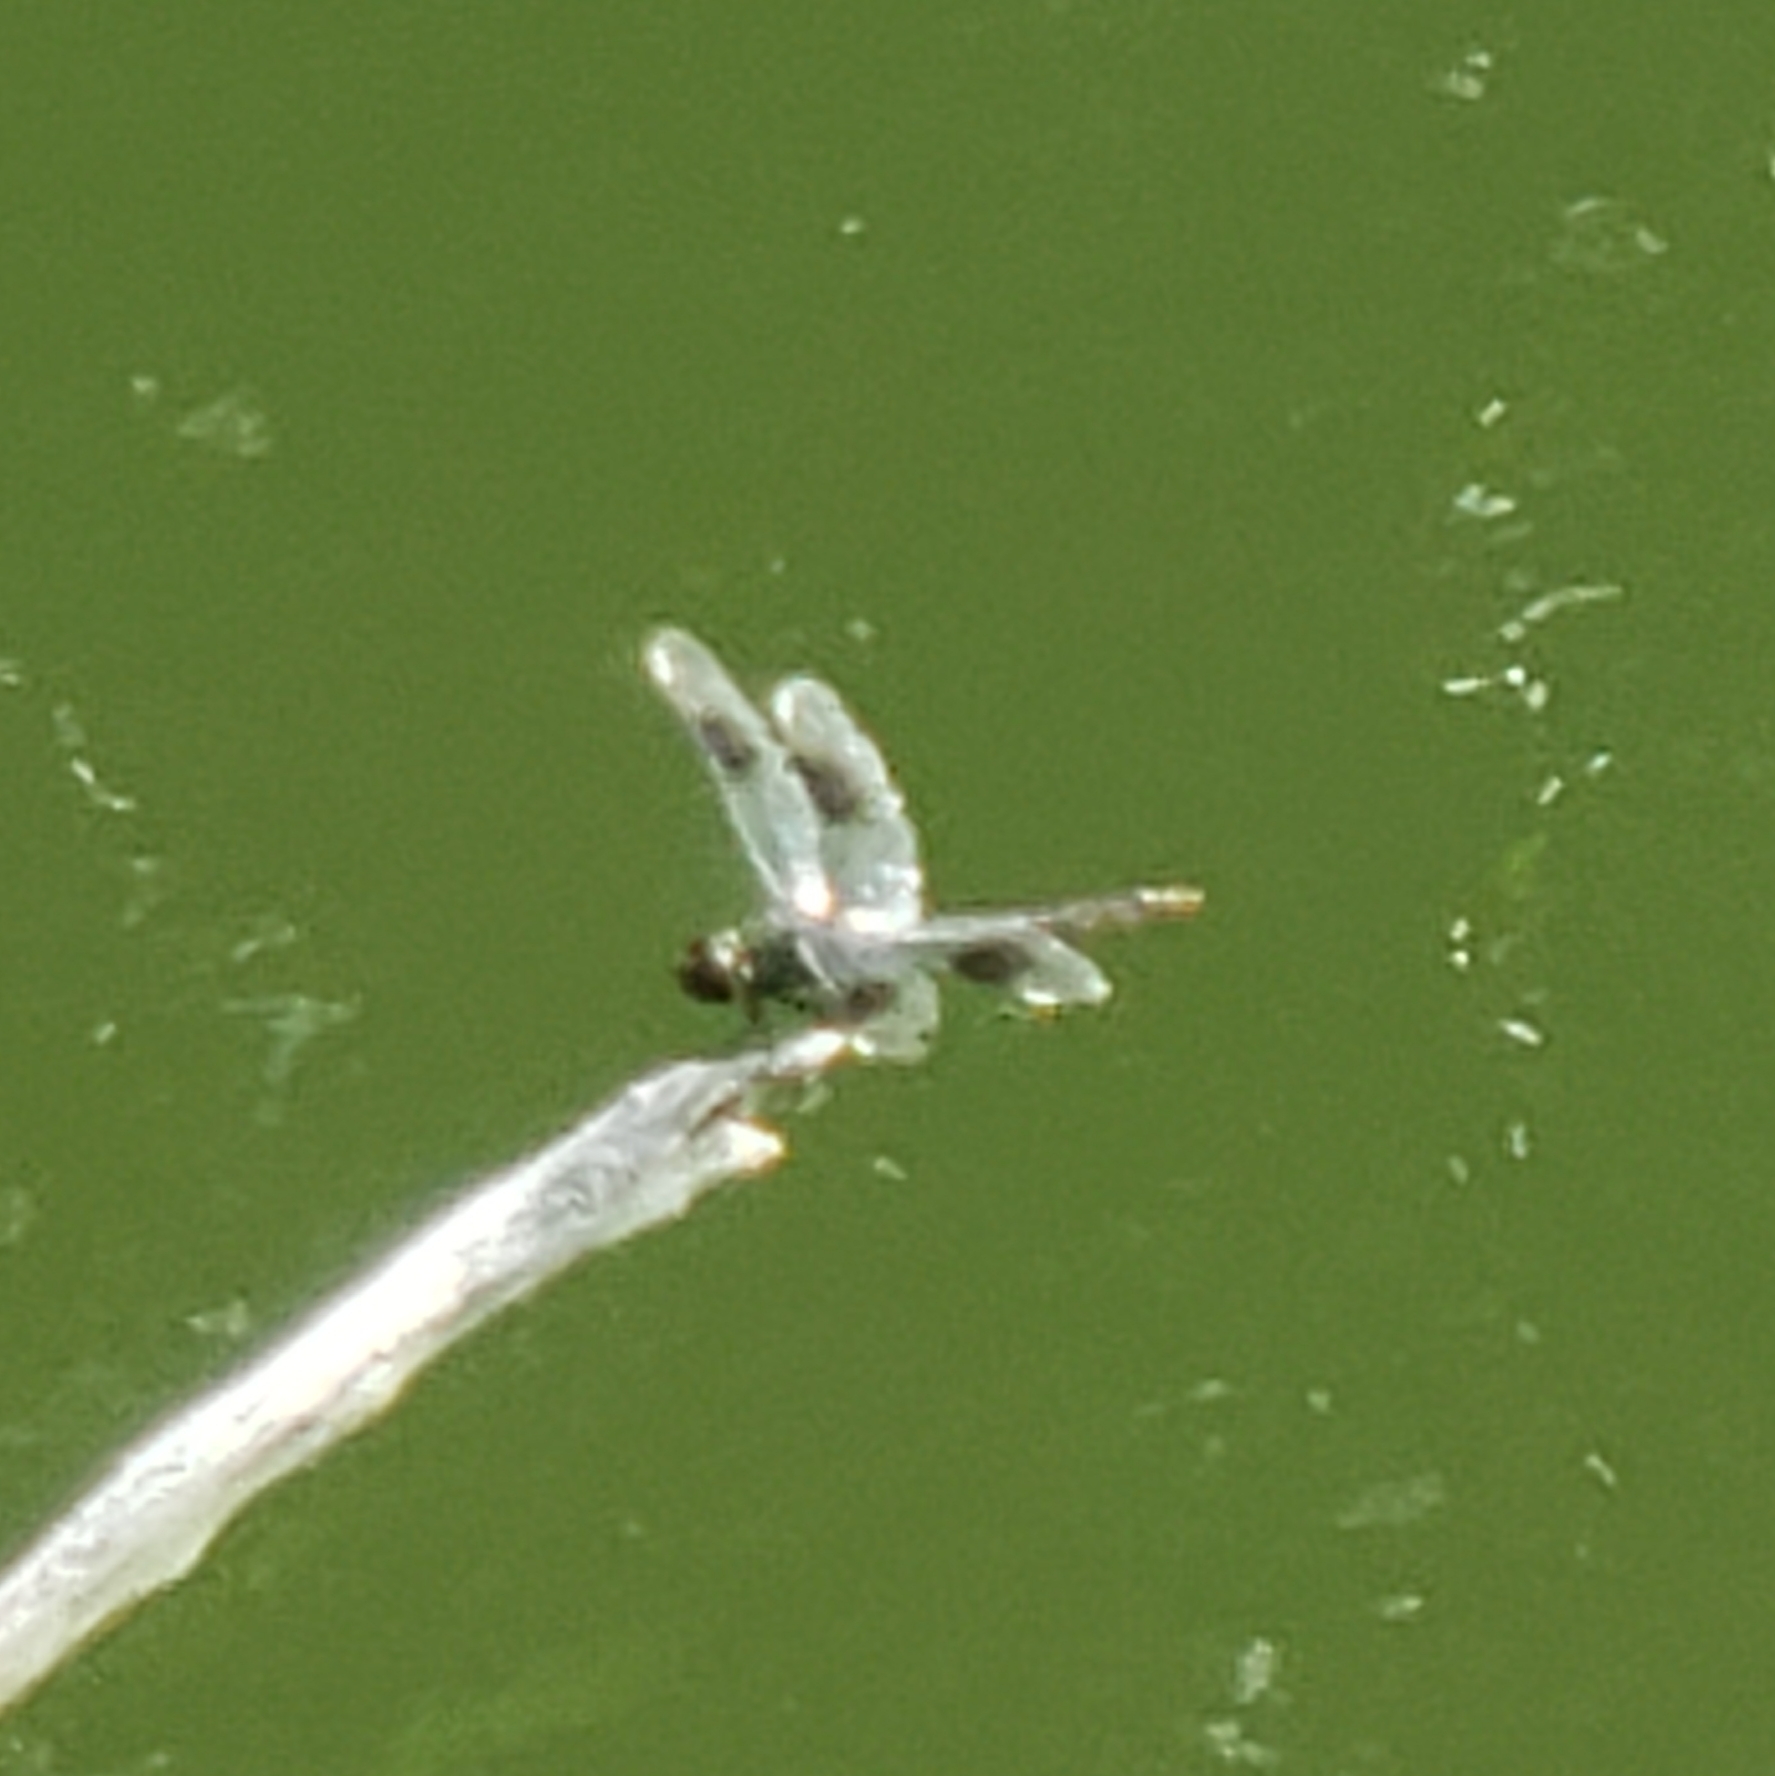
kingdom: Animalia
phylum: Arthropoda
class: Insecta
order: Odonata
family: Libellulidae
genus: Brachymesia
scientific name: Brachymesia gravida
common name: Four-spotted pennant
